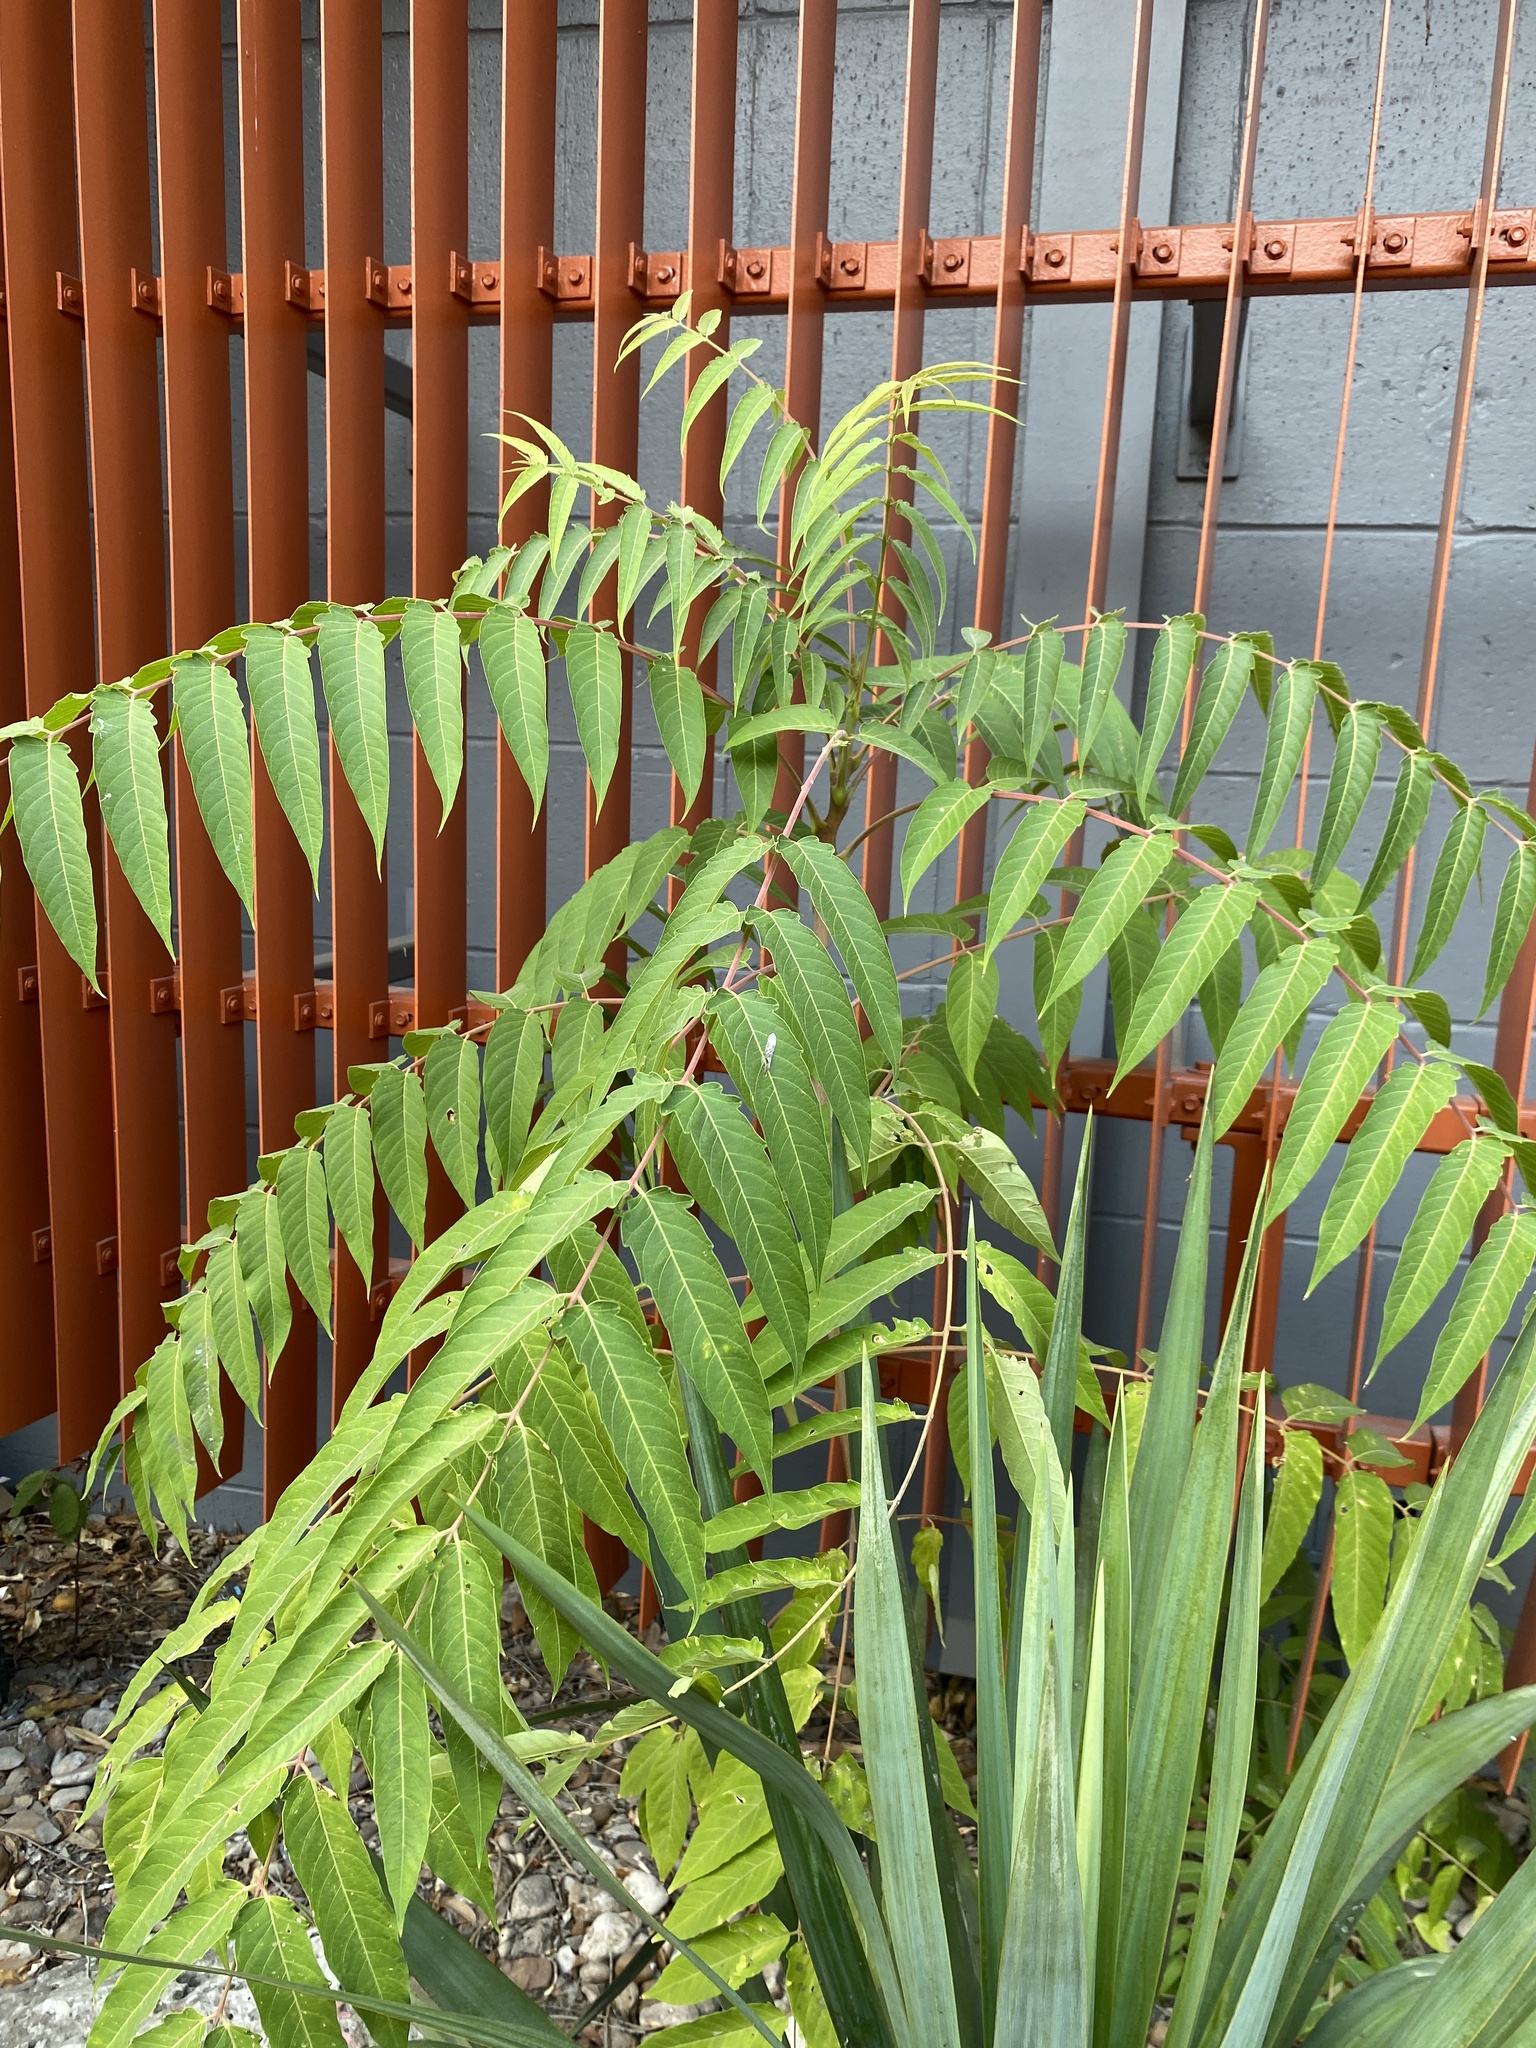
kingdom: Plantae
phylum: Tracheophyta
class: Magnoliopsida
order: Sapindales
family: Simaroubaceae
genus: Ailanthus
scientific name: Ailanthus altissima
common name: Tree-of-heaven
